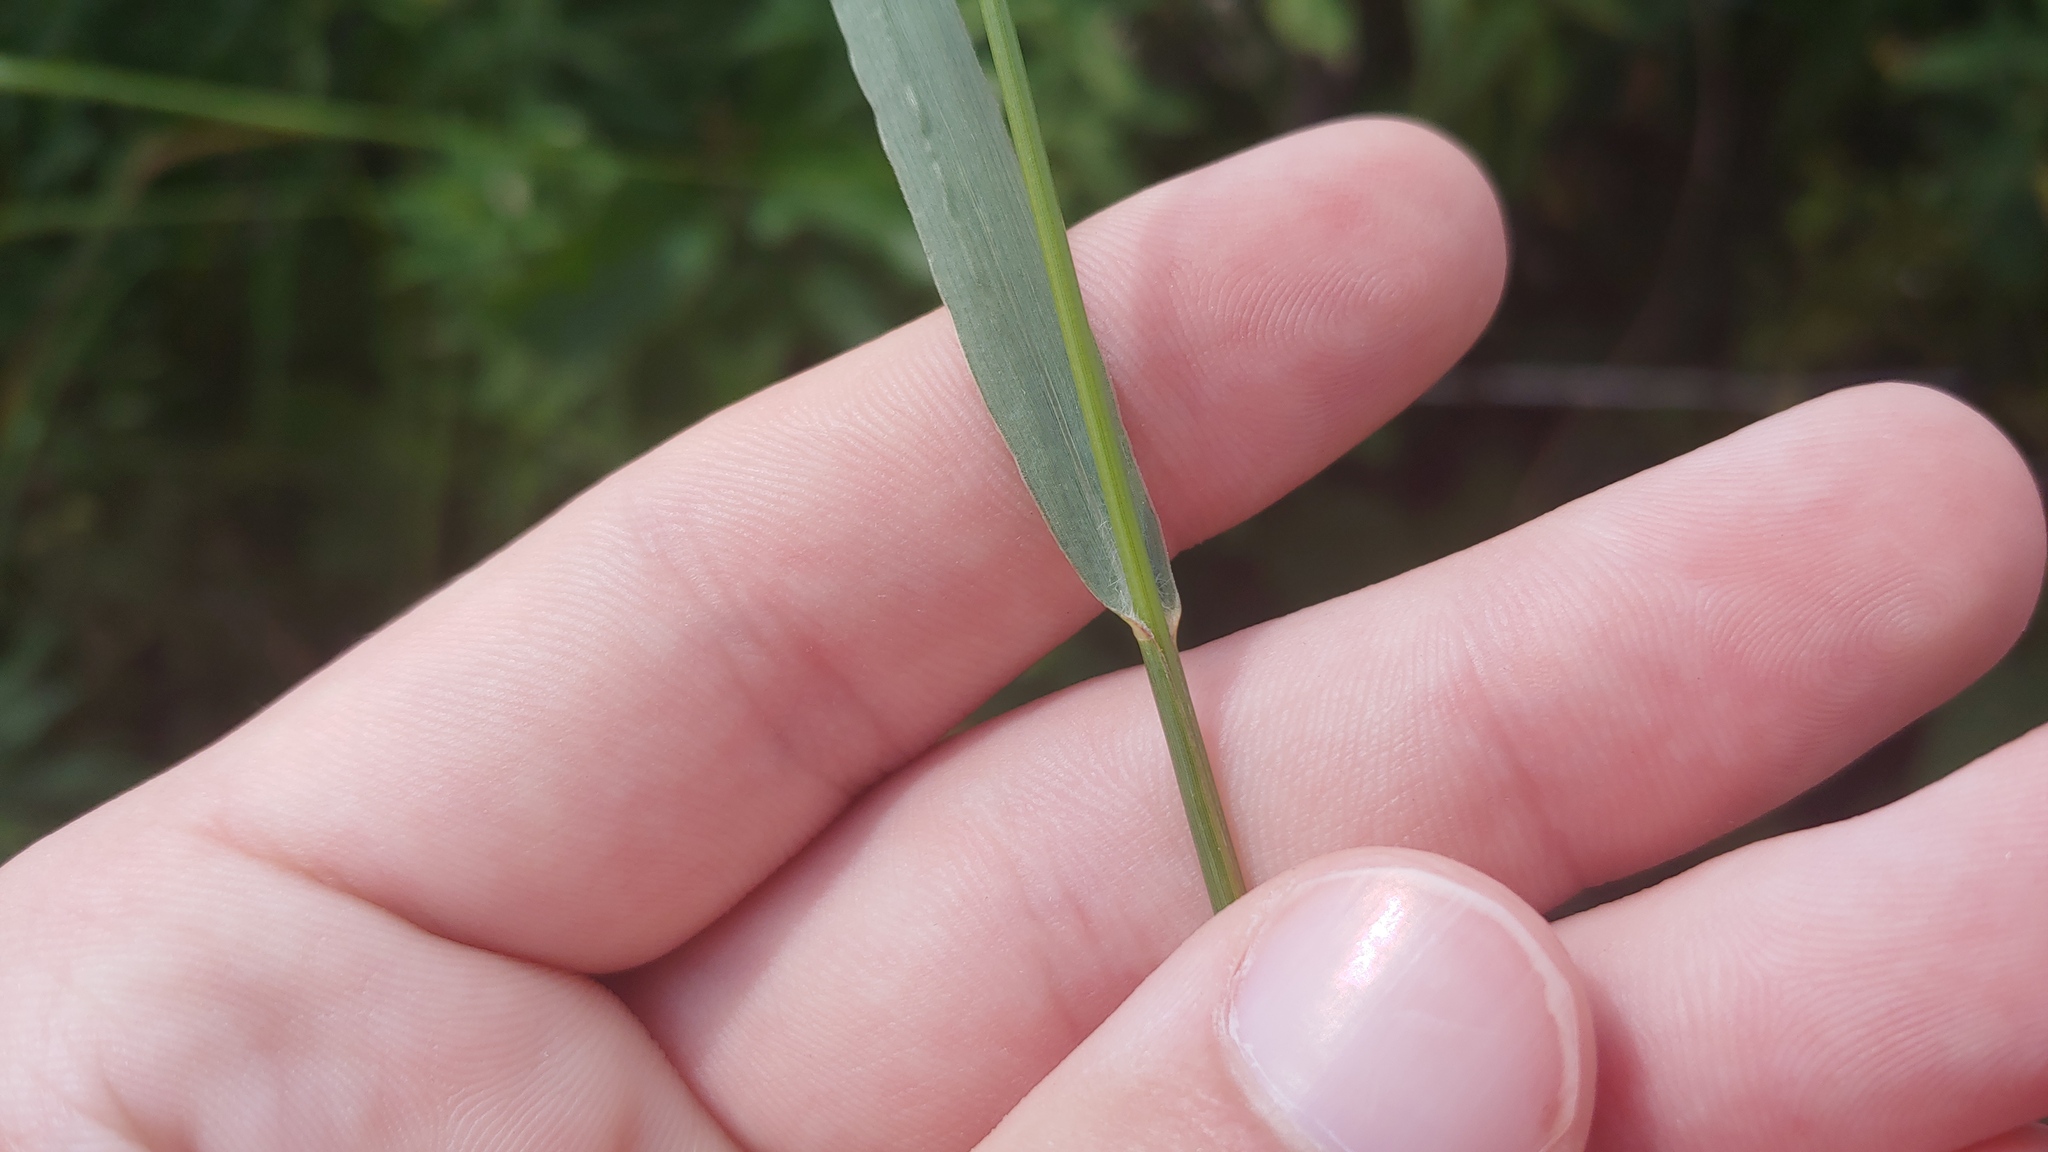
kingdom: Plantae
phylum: Tracheophyta
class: Liliopsida
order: Poales
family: Poaceae
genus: Panicum
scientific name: Panicum virgatum
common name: Switchgrass
